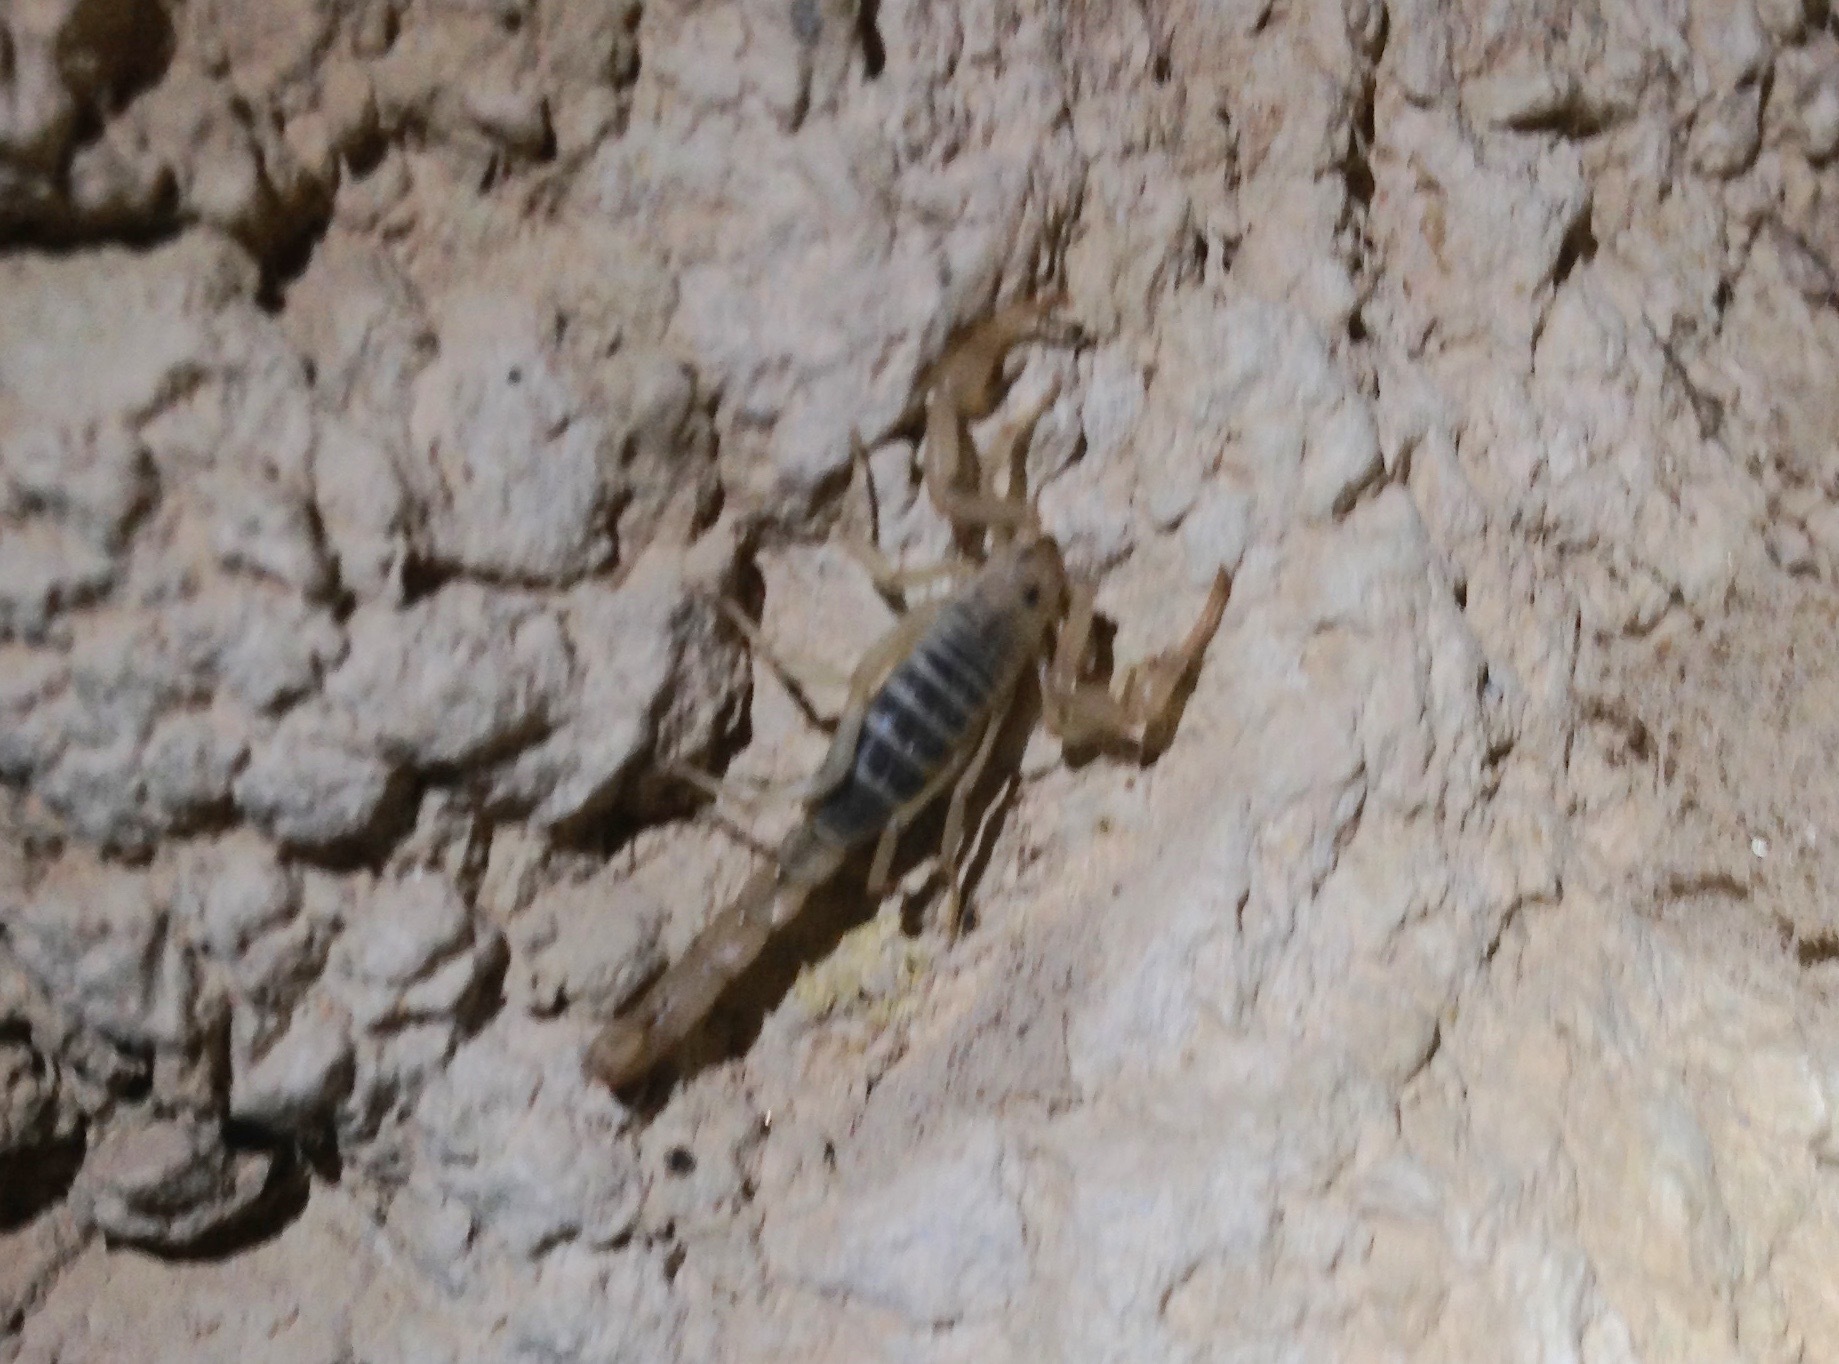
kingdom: Animalia
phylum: Arthropoda
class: Arachnida
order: Scorpiones
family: Vaejovidae
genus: Stahnkeus
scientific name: Stahnkeus subtilimanus
